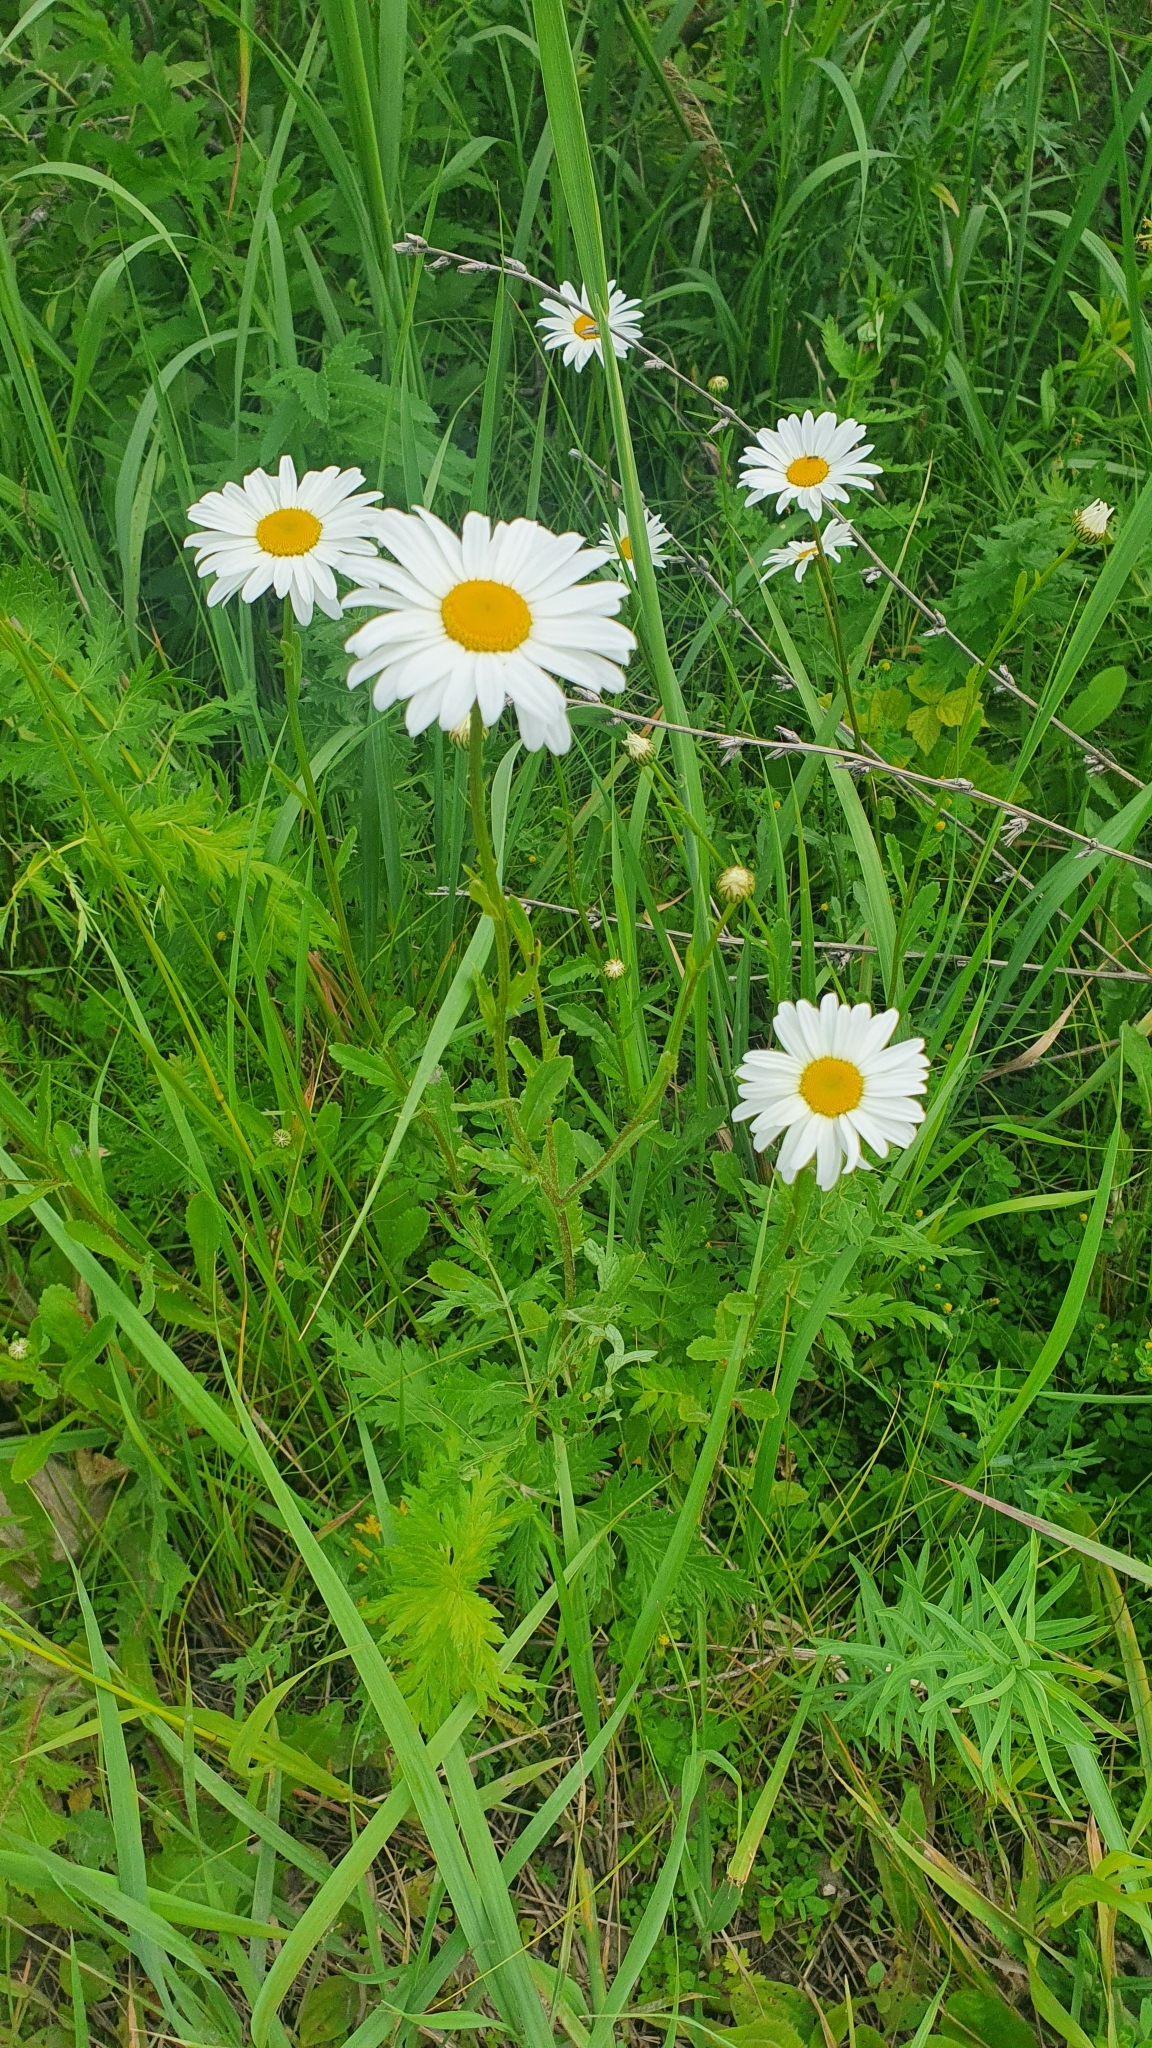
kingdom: Plantae
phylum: Tracheophyta
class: Magnoliopsida
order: Asterales
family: Asteraceae
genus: Leucanthemum
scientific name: Leucanthemum vulgare
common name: Oxeye daisy
